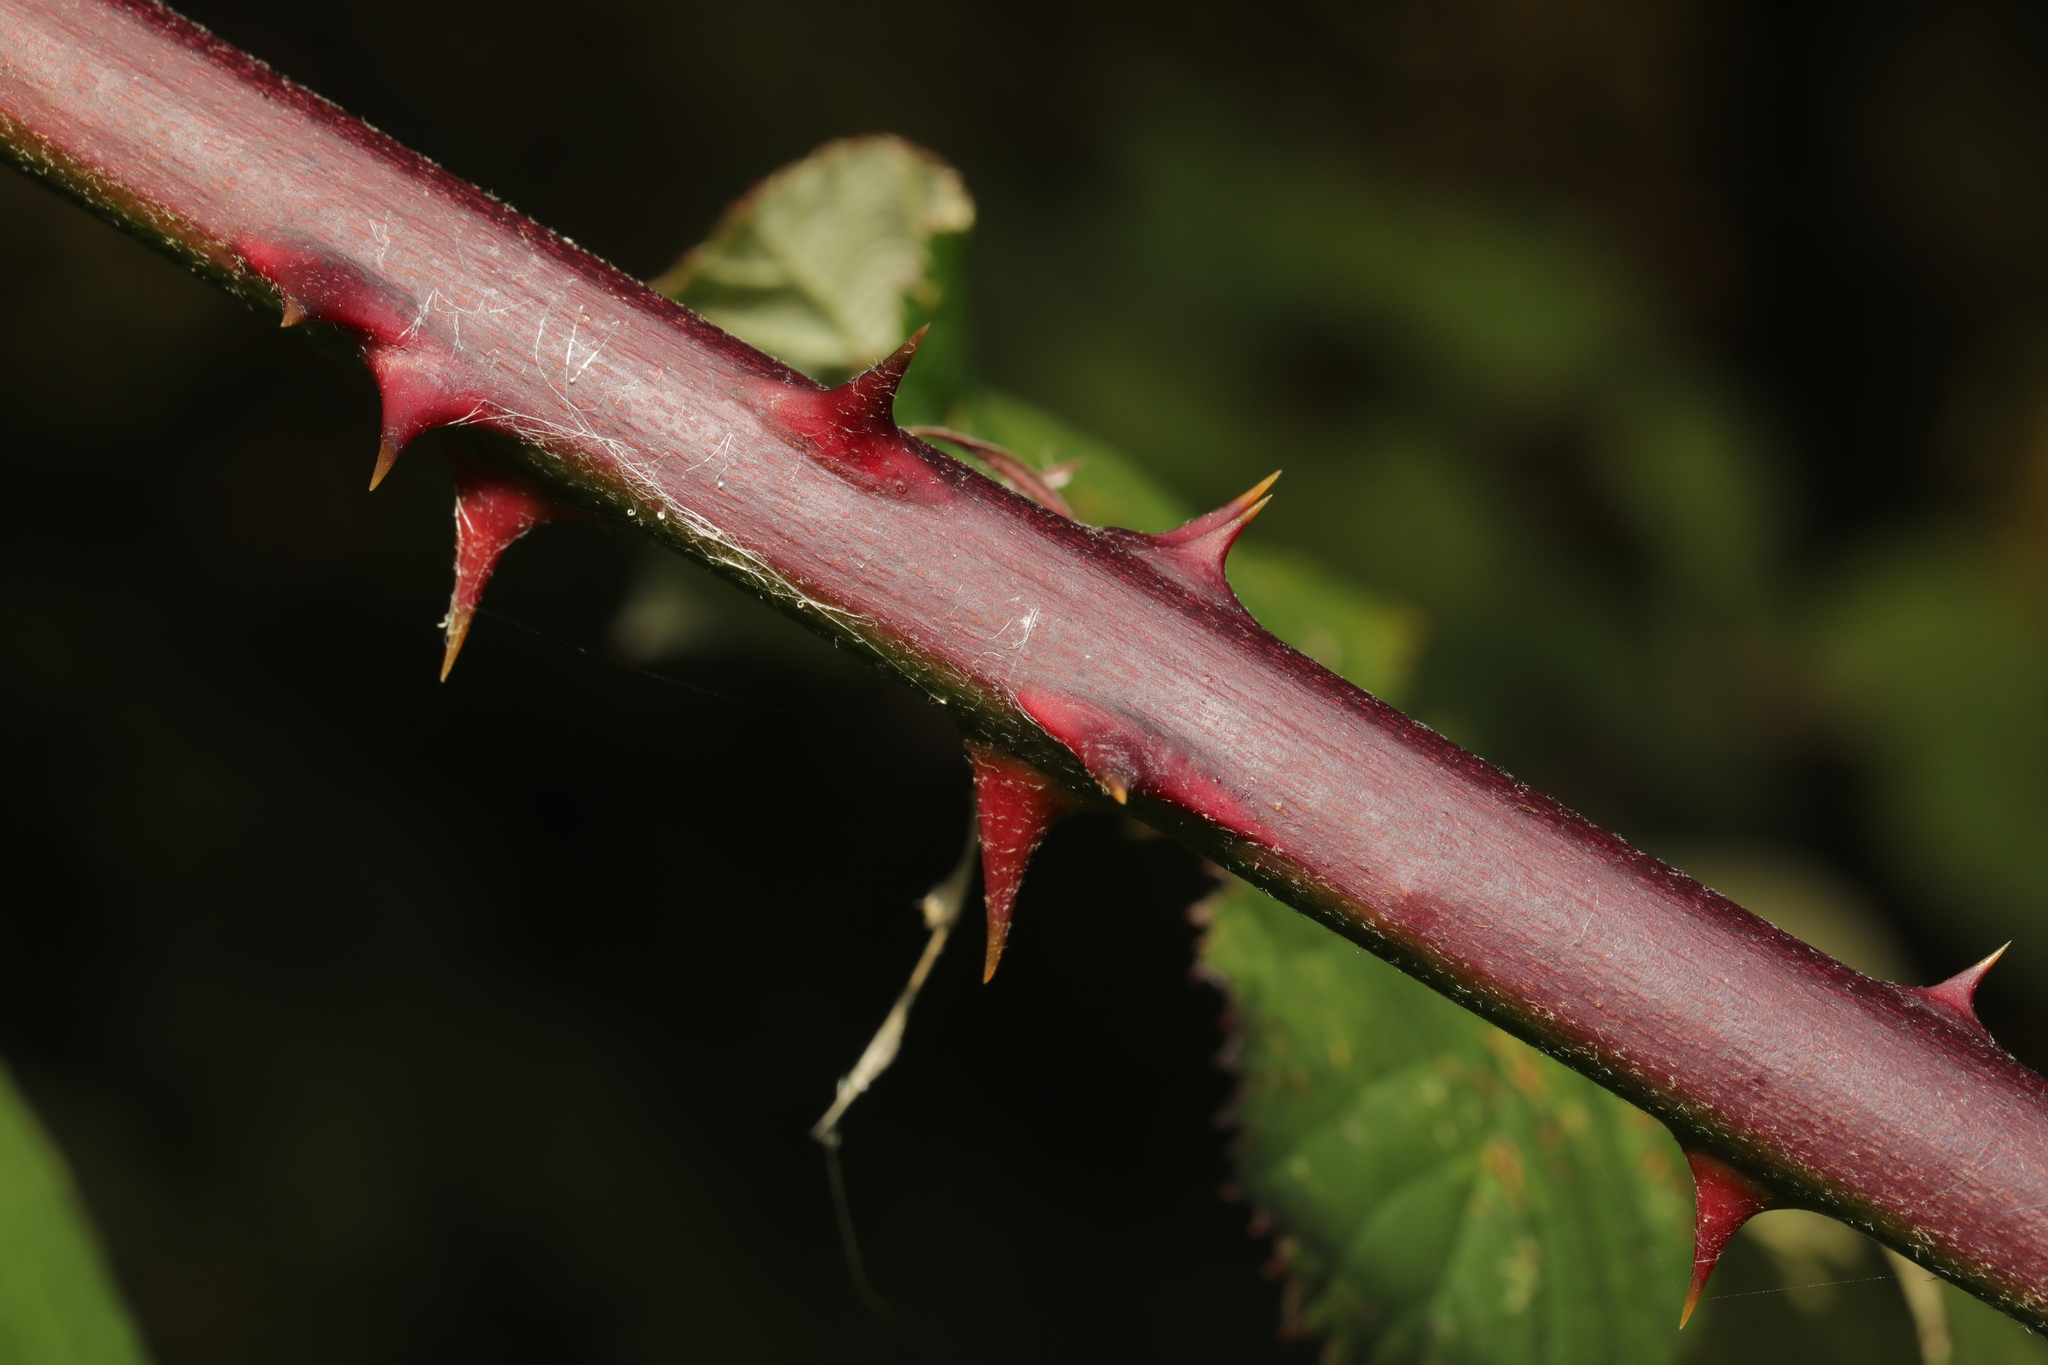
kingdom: Plantae
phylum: Tracheophyta
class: Magnoliopsida
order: Rosales
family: Rosaceae
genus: Rubus
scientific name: Rubus armeniacus
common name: Himalayan blackberry
